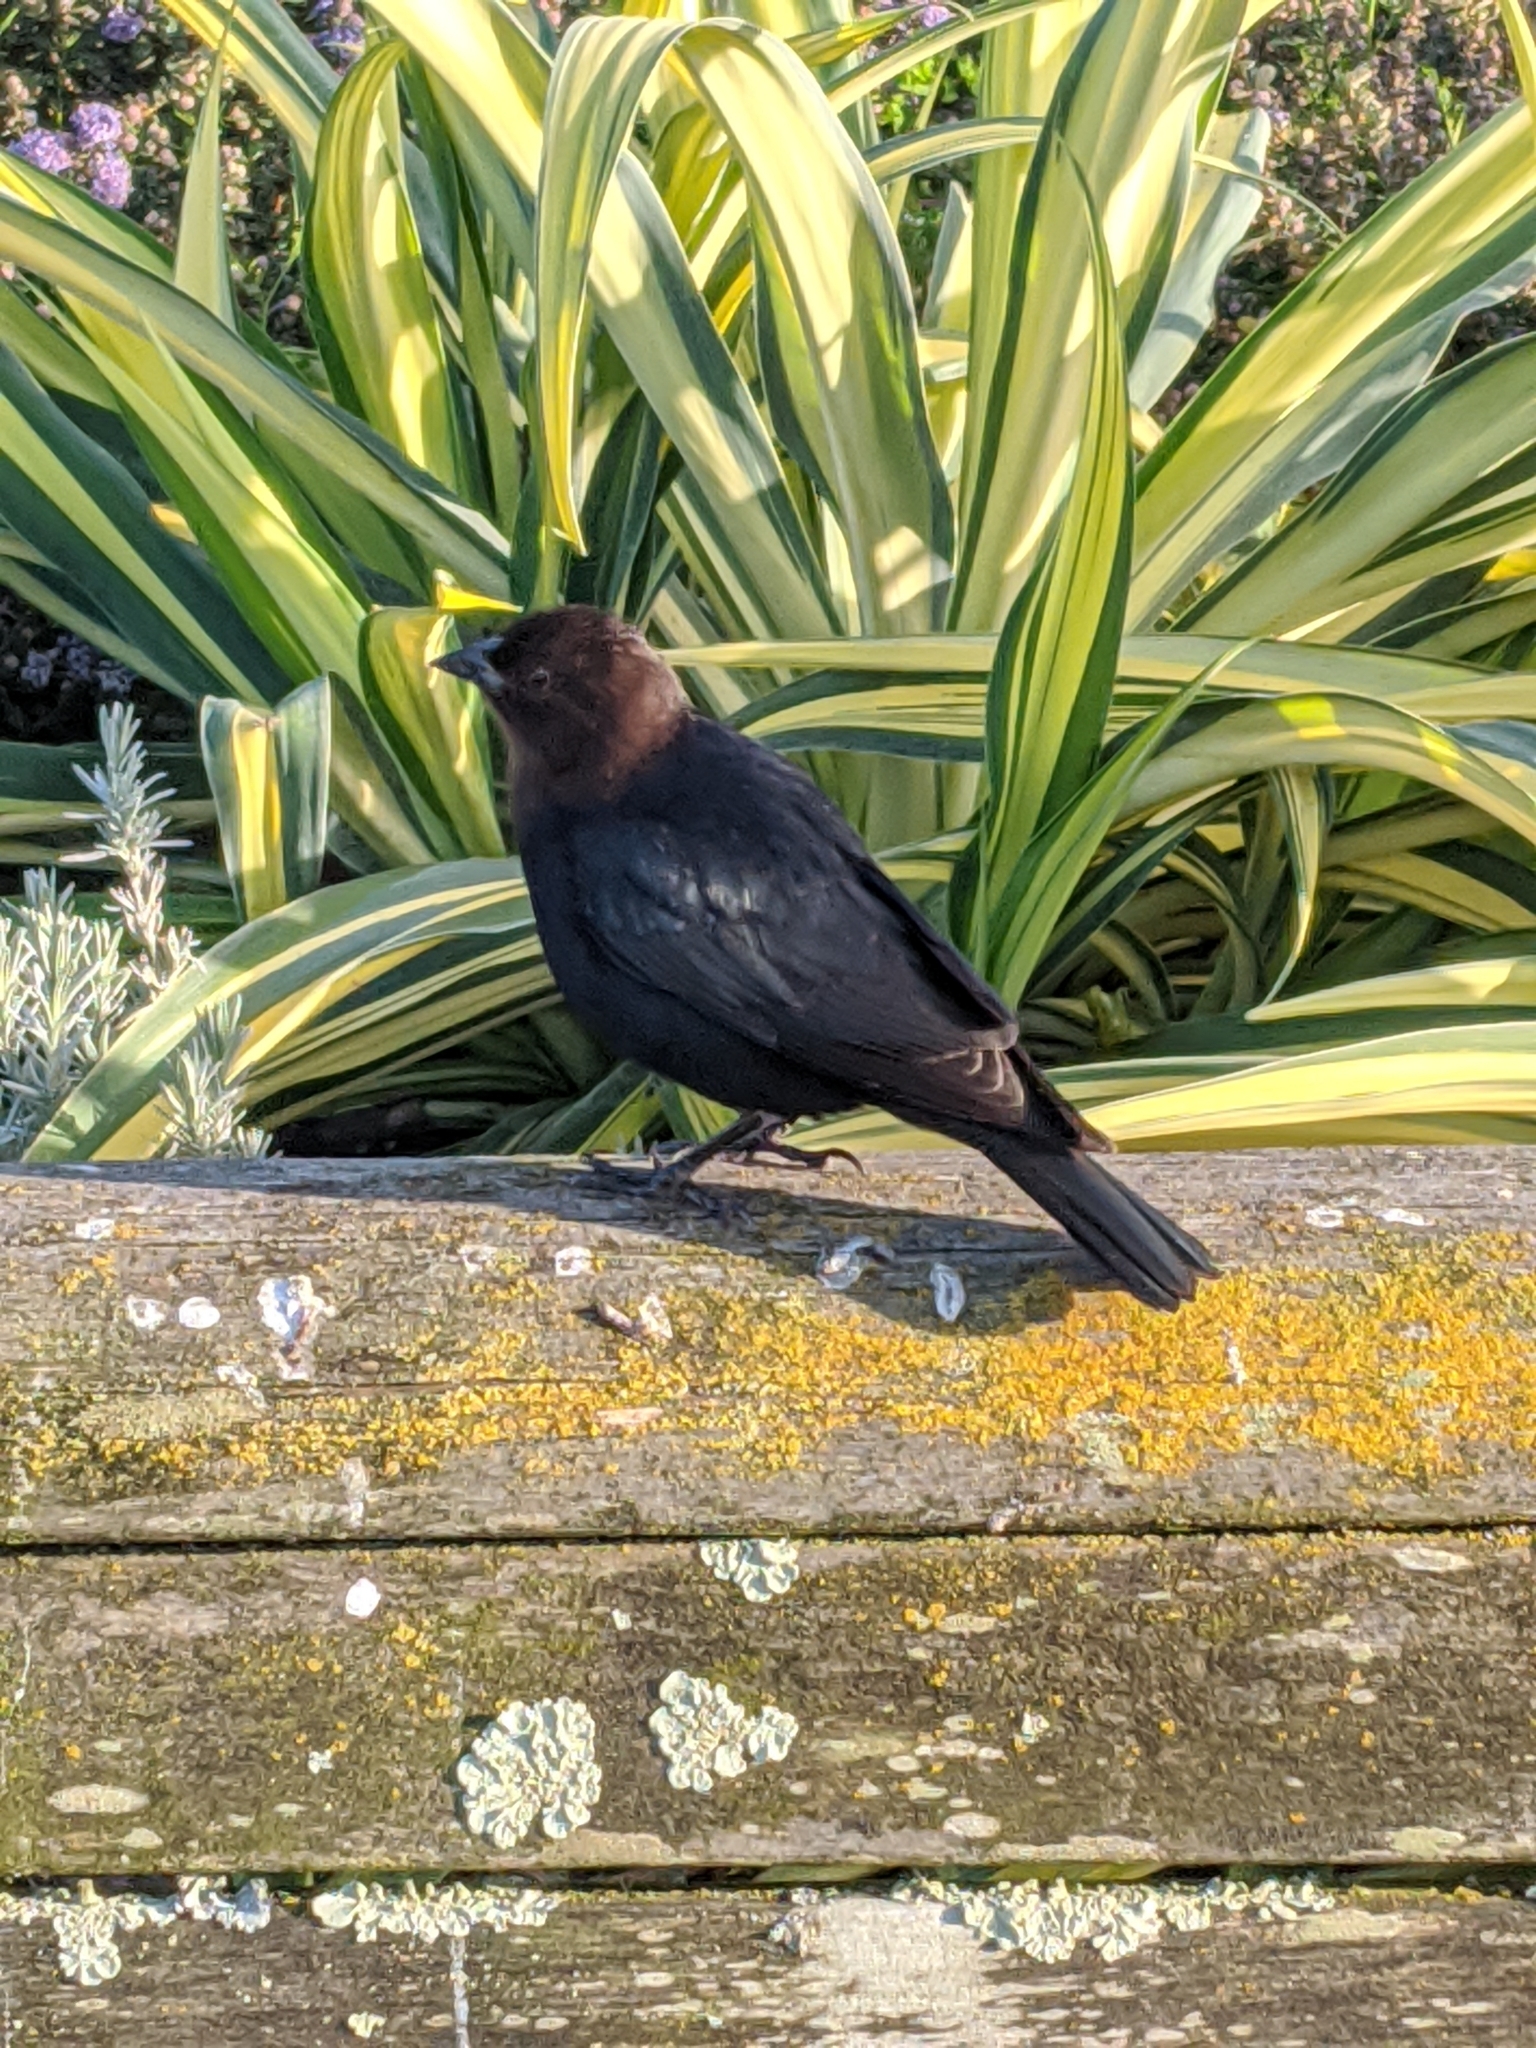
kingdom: Animalia
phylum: Chordata
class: Aves
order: Passeriformes
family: Icteridae
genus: Molothrus
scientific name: Molothrus ater
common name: Brown-headed cowbird
